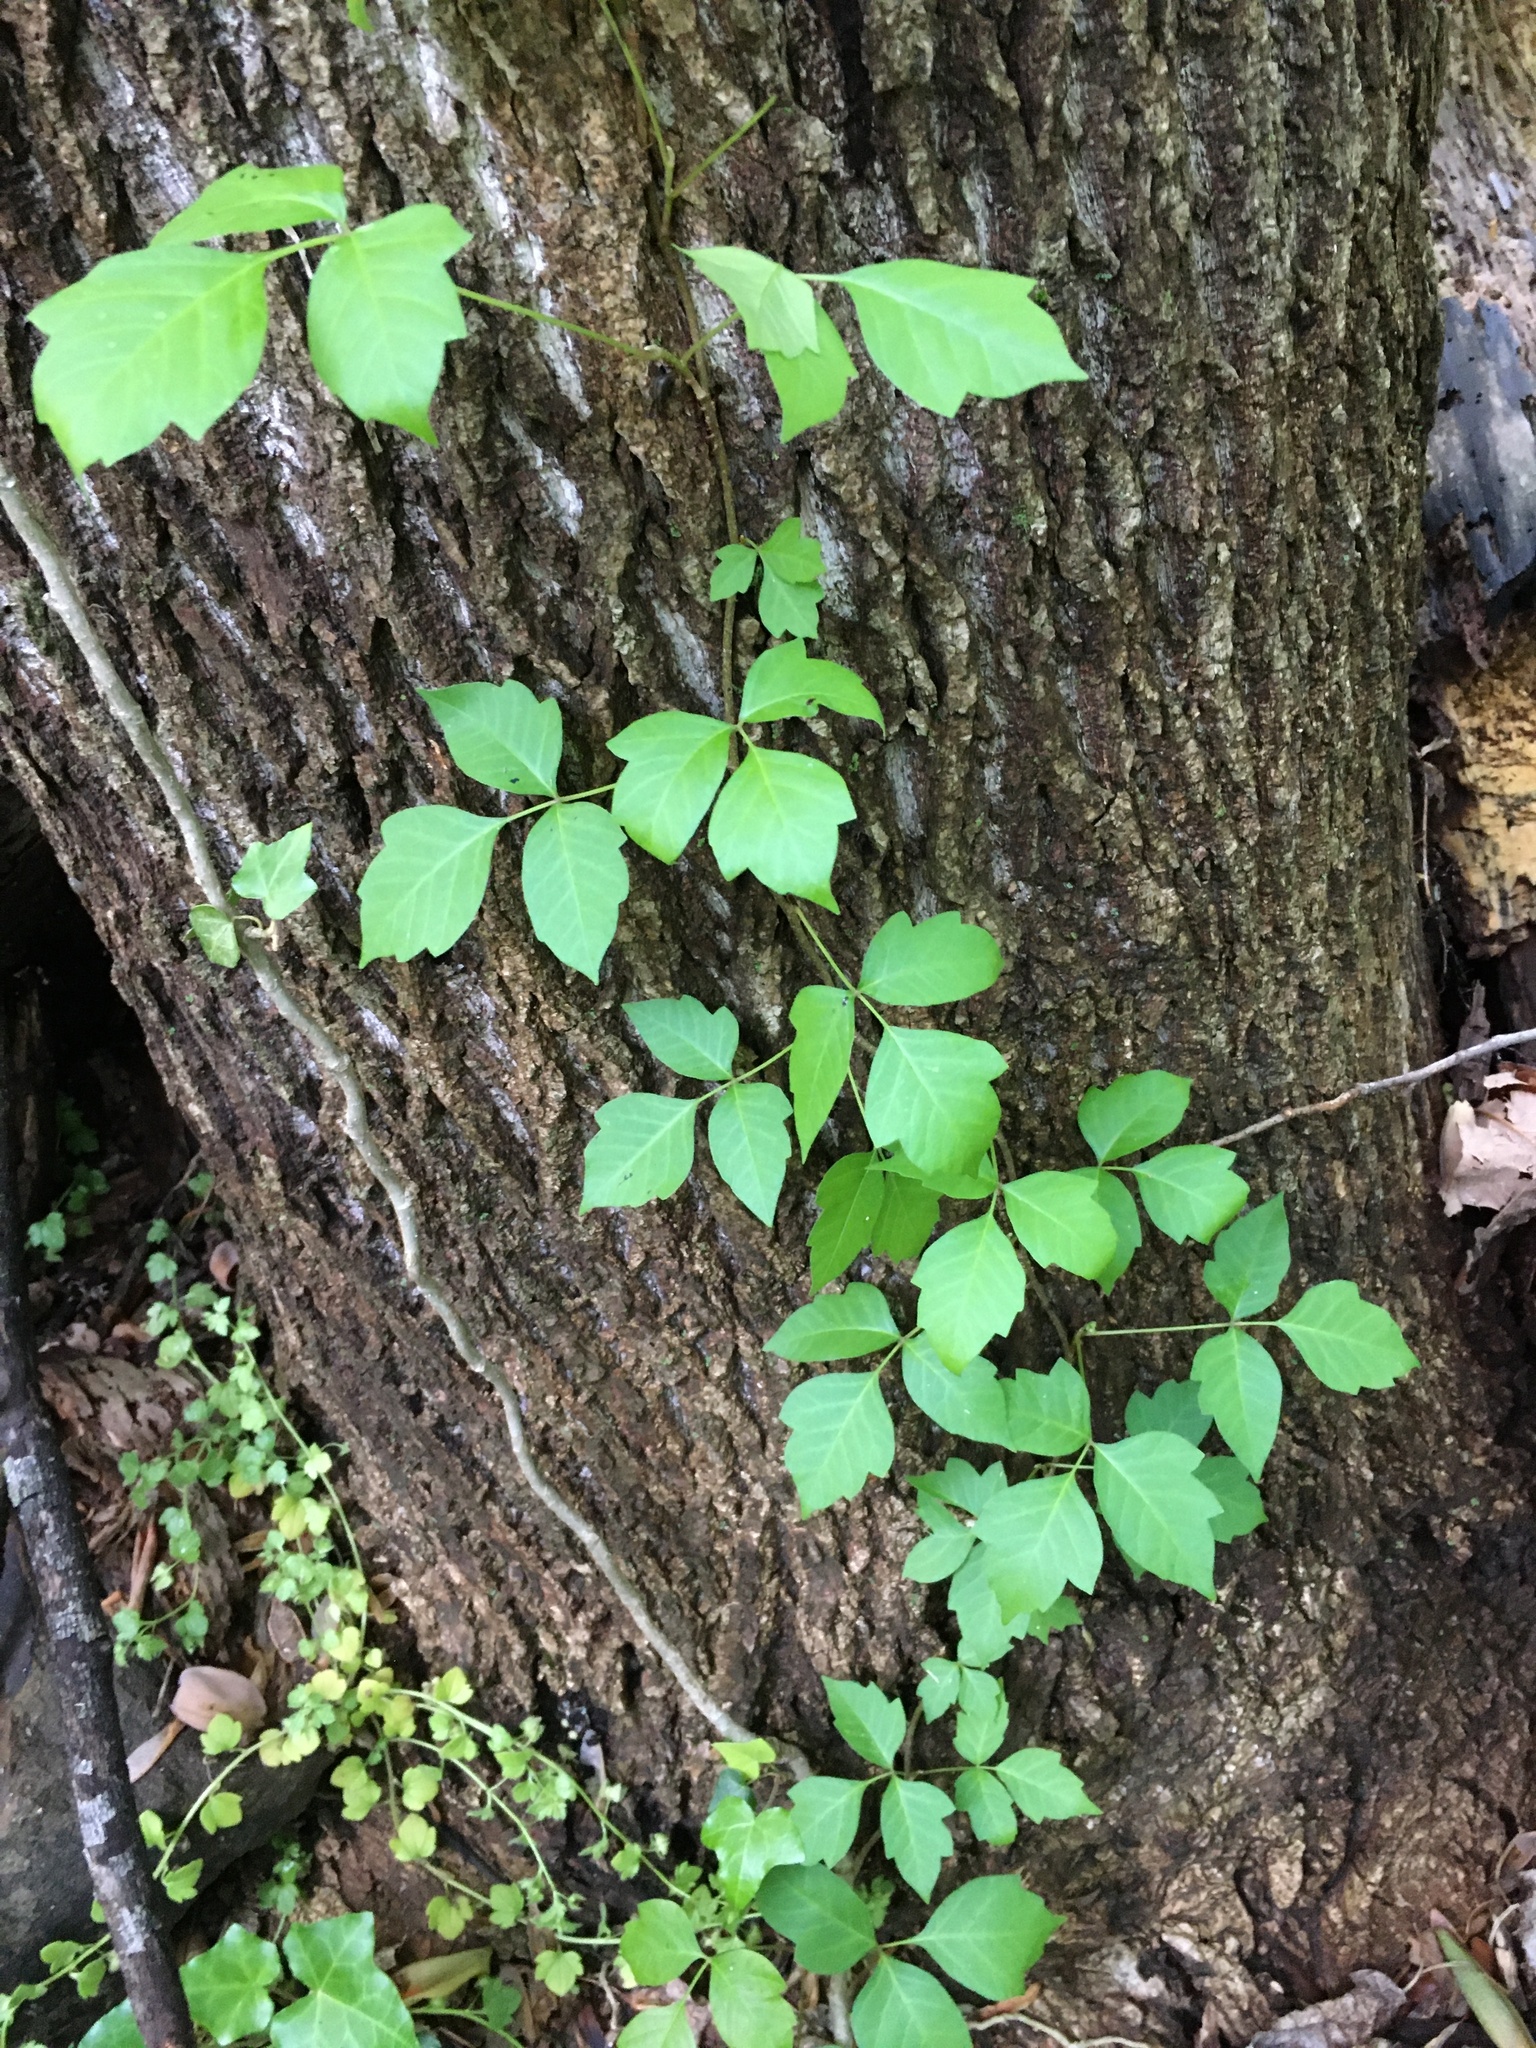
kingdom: Plantae
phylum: Tracheophyta
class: Magnoliopsida
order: Sapindales
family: Anacardiaceae
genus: Toxicodendron
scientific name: Toxicodendron radicans
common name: Poison ivy
